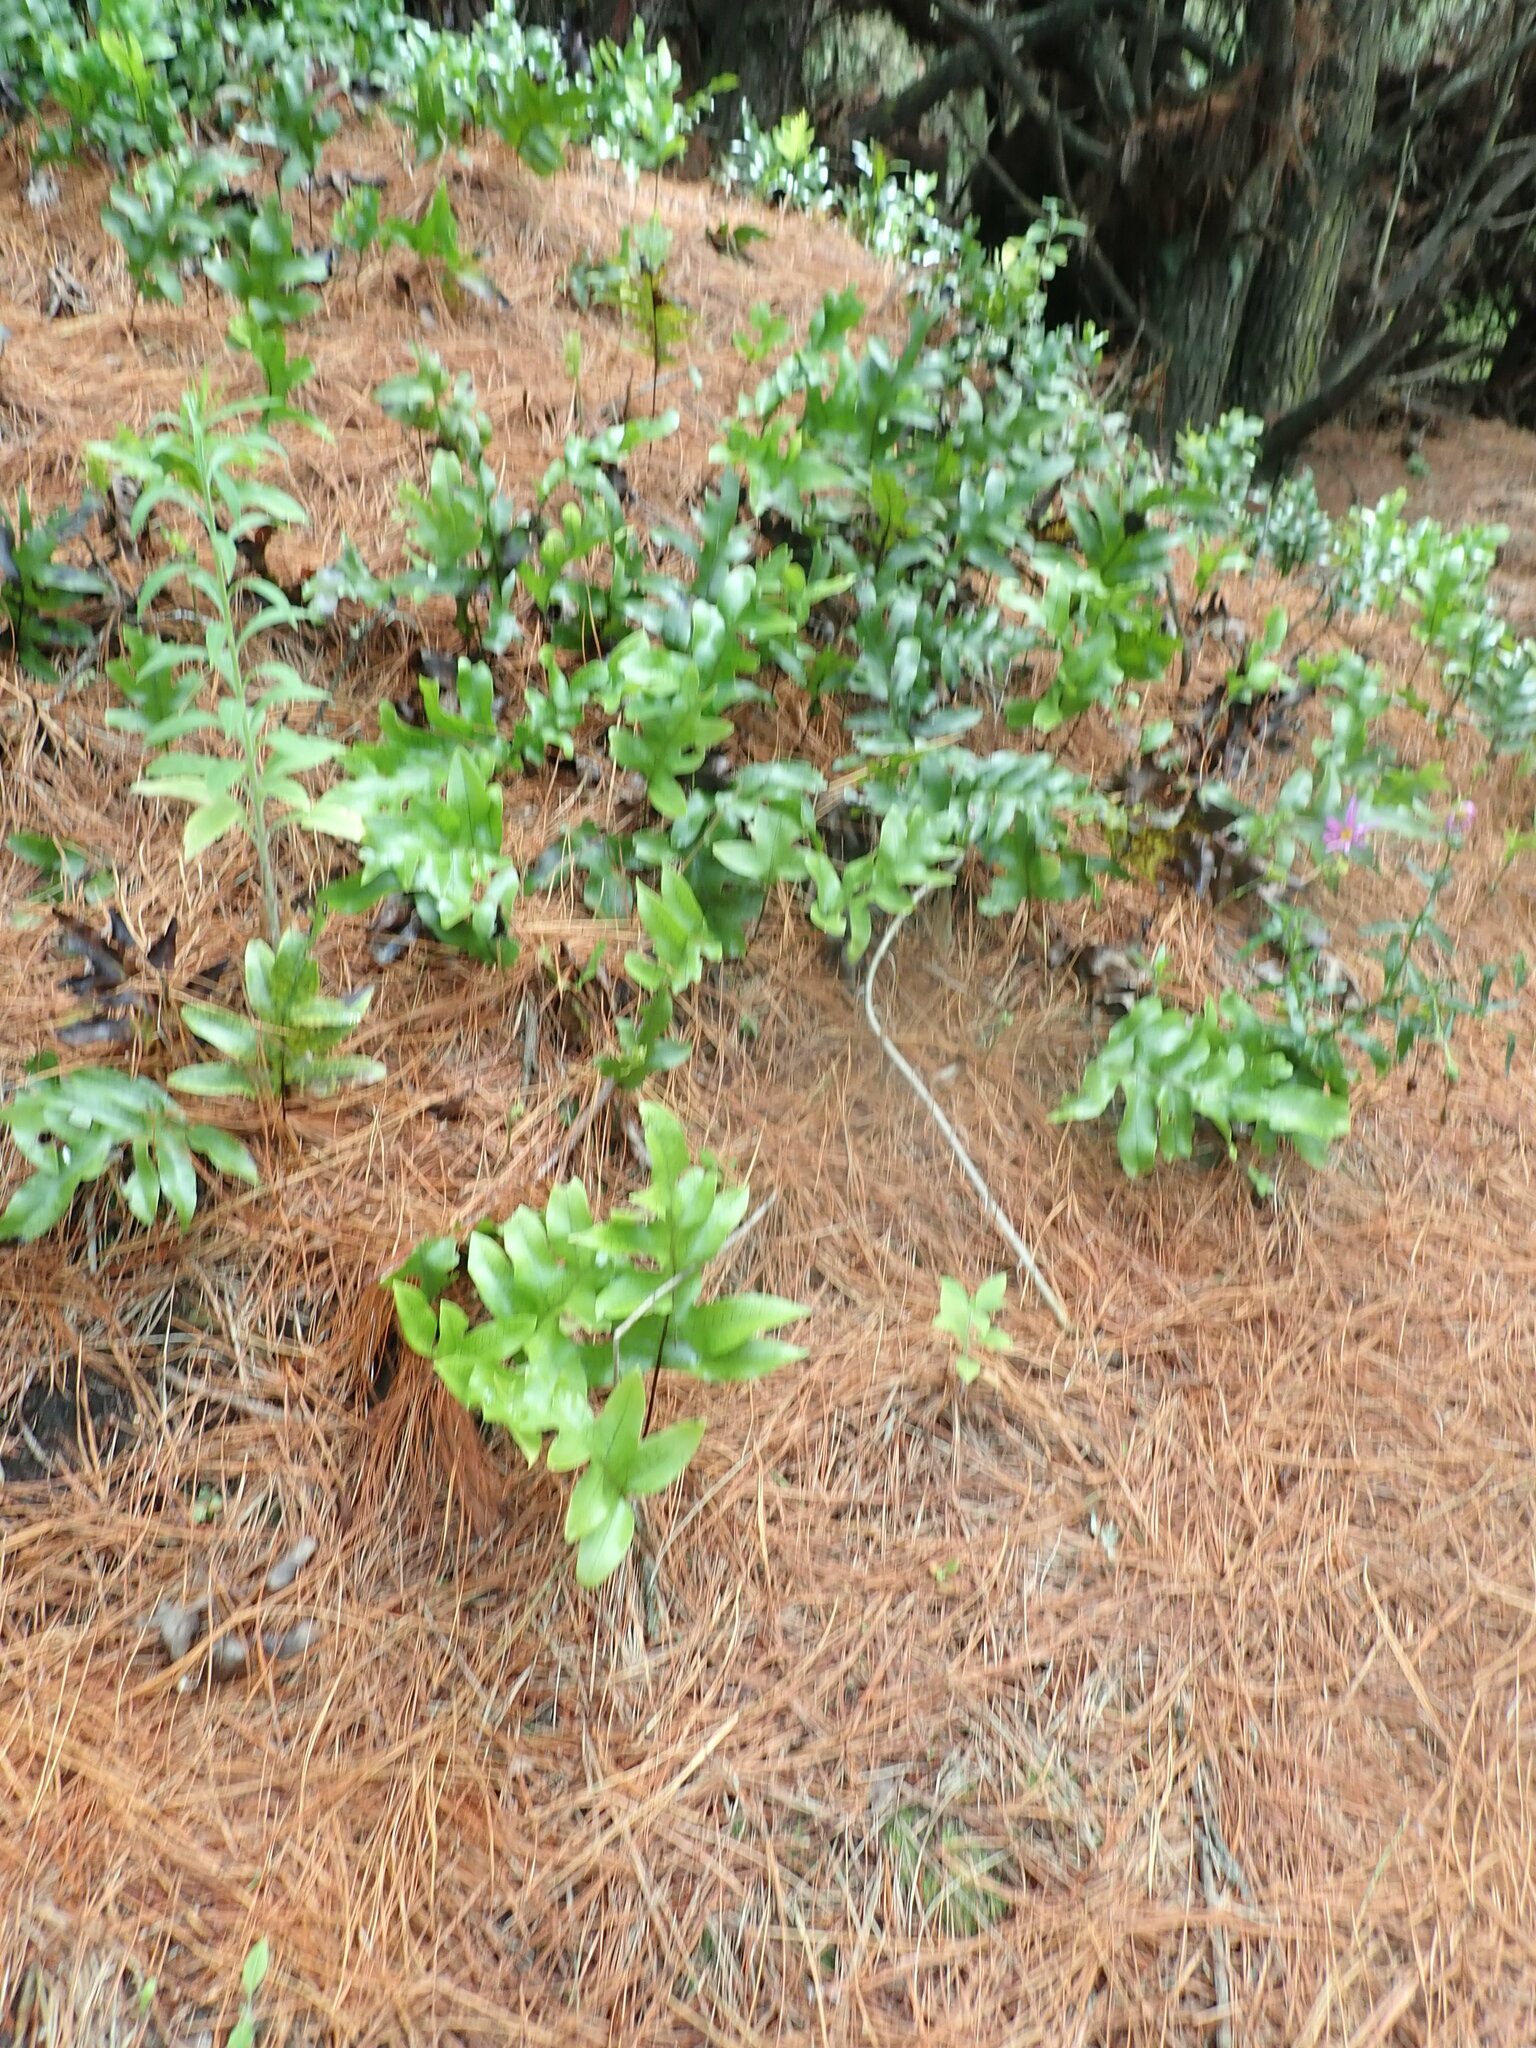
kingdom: Plantae
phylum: Tracheophyta
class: Polypodiopsida
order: Polypodiales
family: Polypodiaceae
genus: Lecanopteris
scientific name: Lecanopteris pustulata
